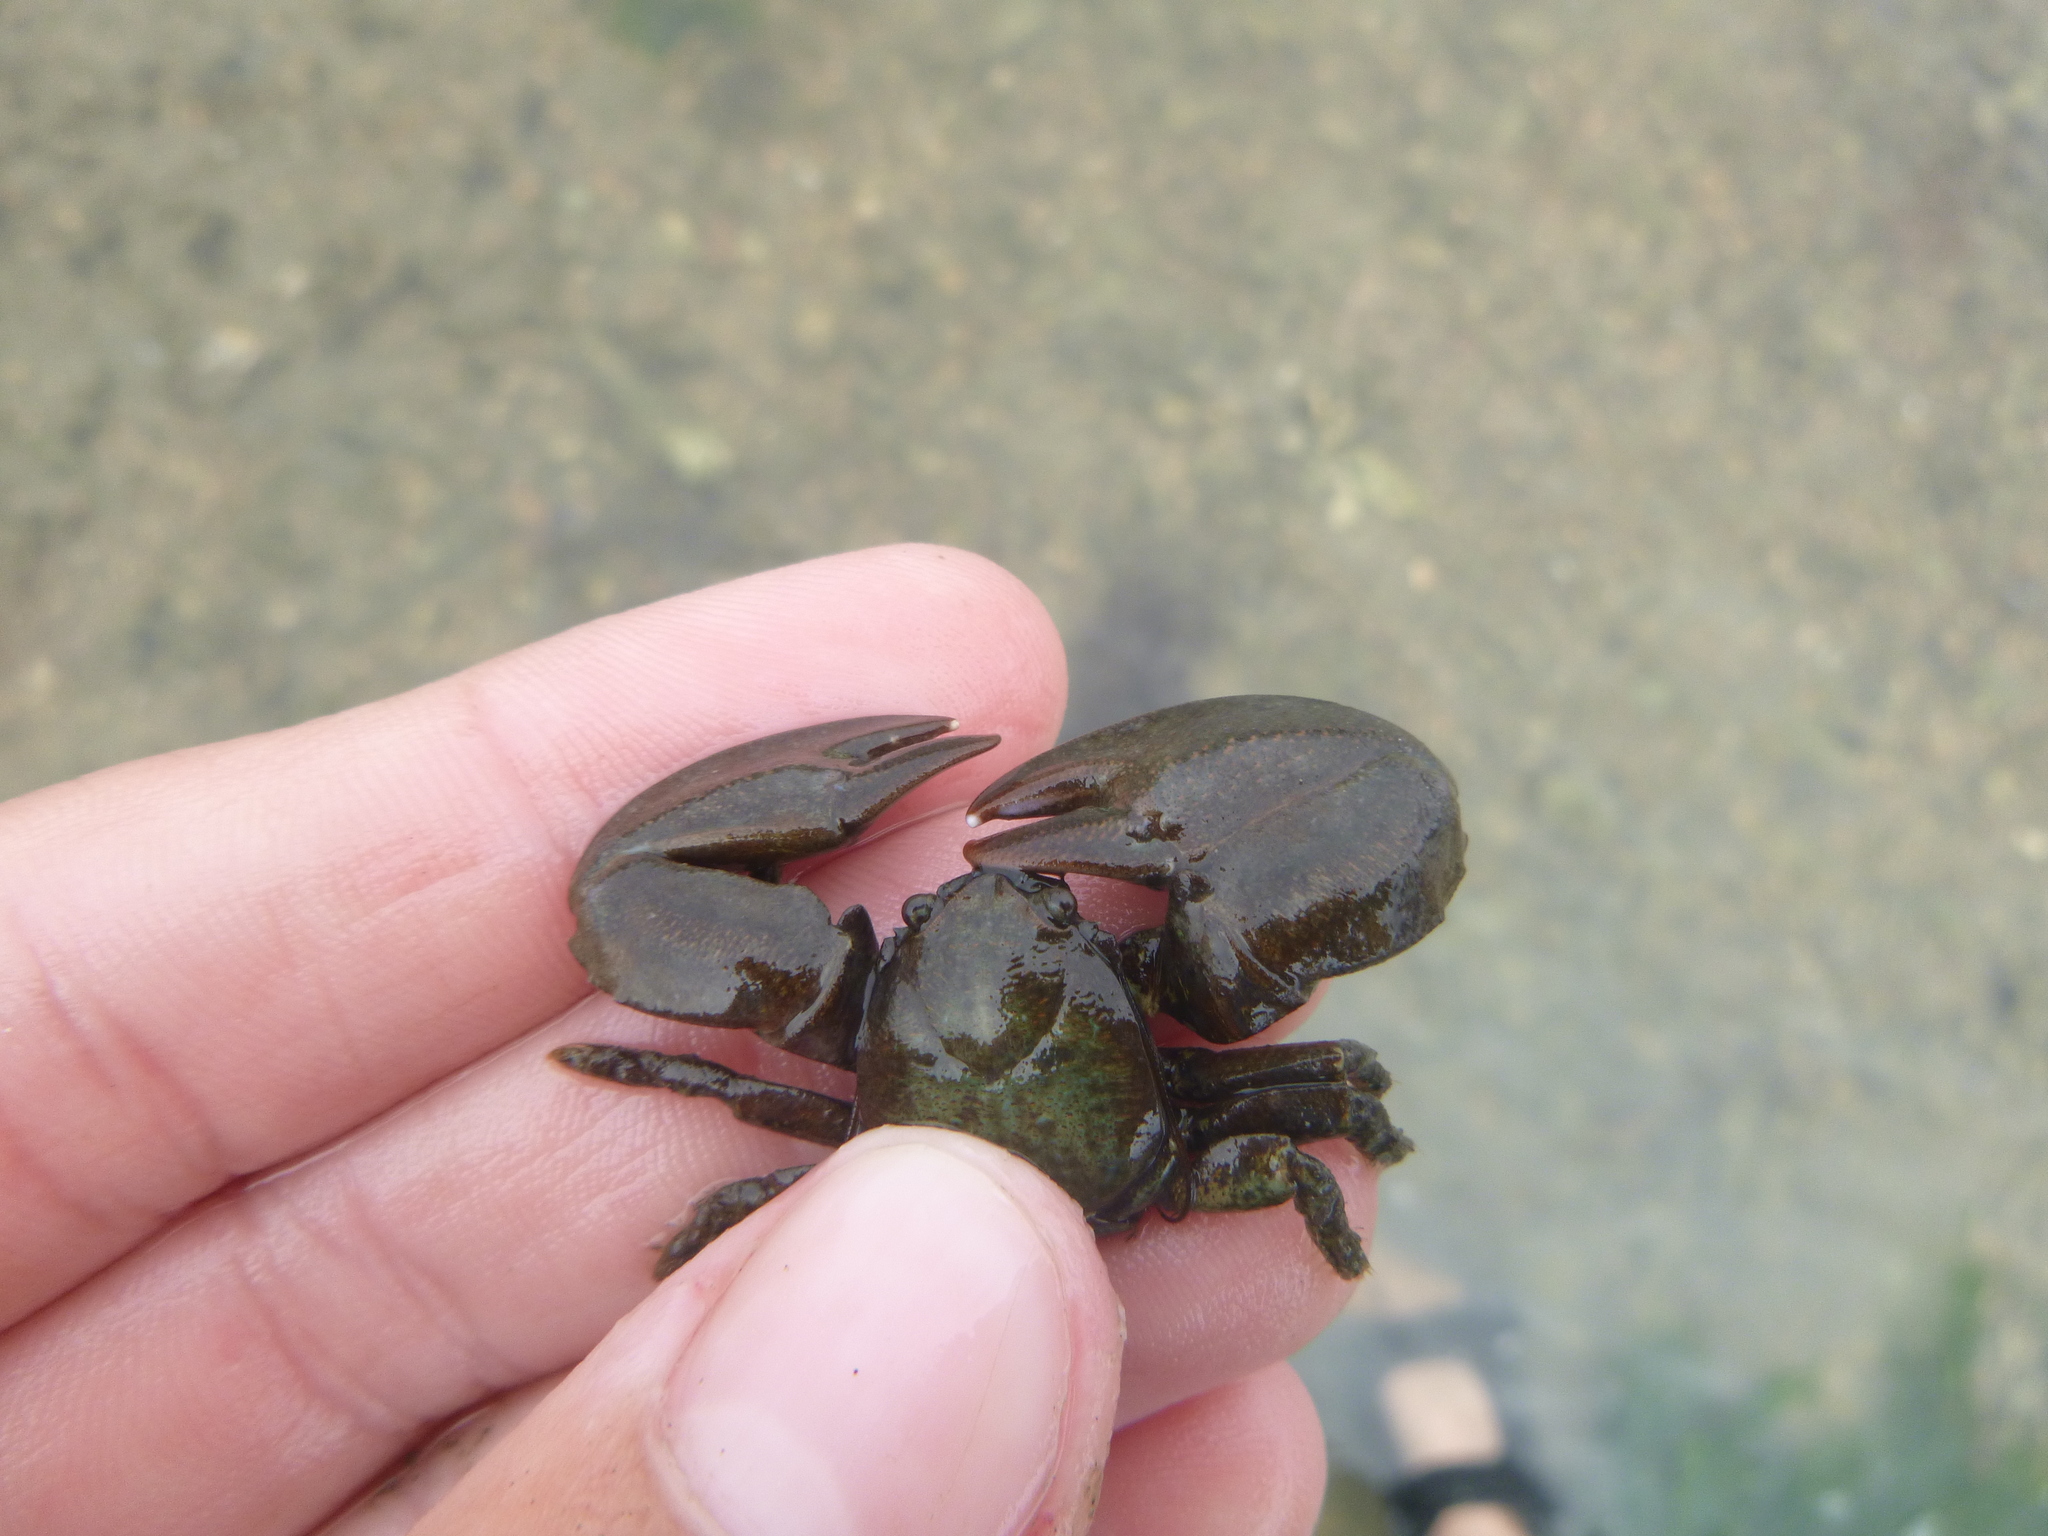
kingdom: Animalia
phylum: Arthropoda
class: Malacostraca
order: Decapoda
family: Porcellanidae
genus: Petrolisthes
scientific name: Petrolisthes elongatus
